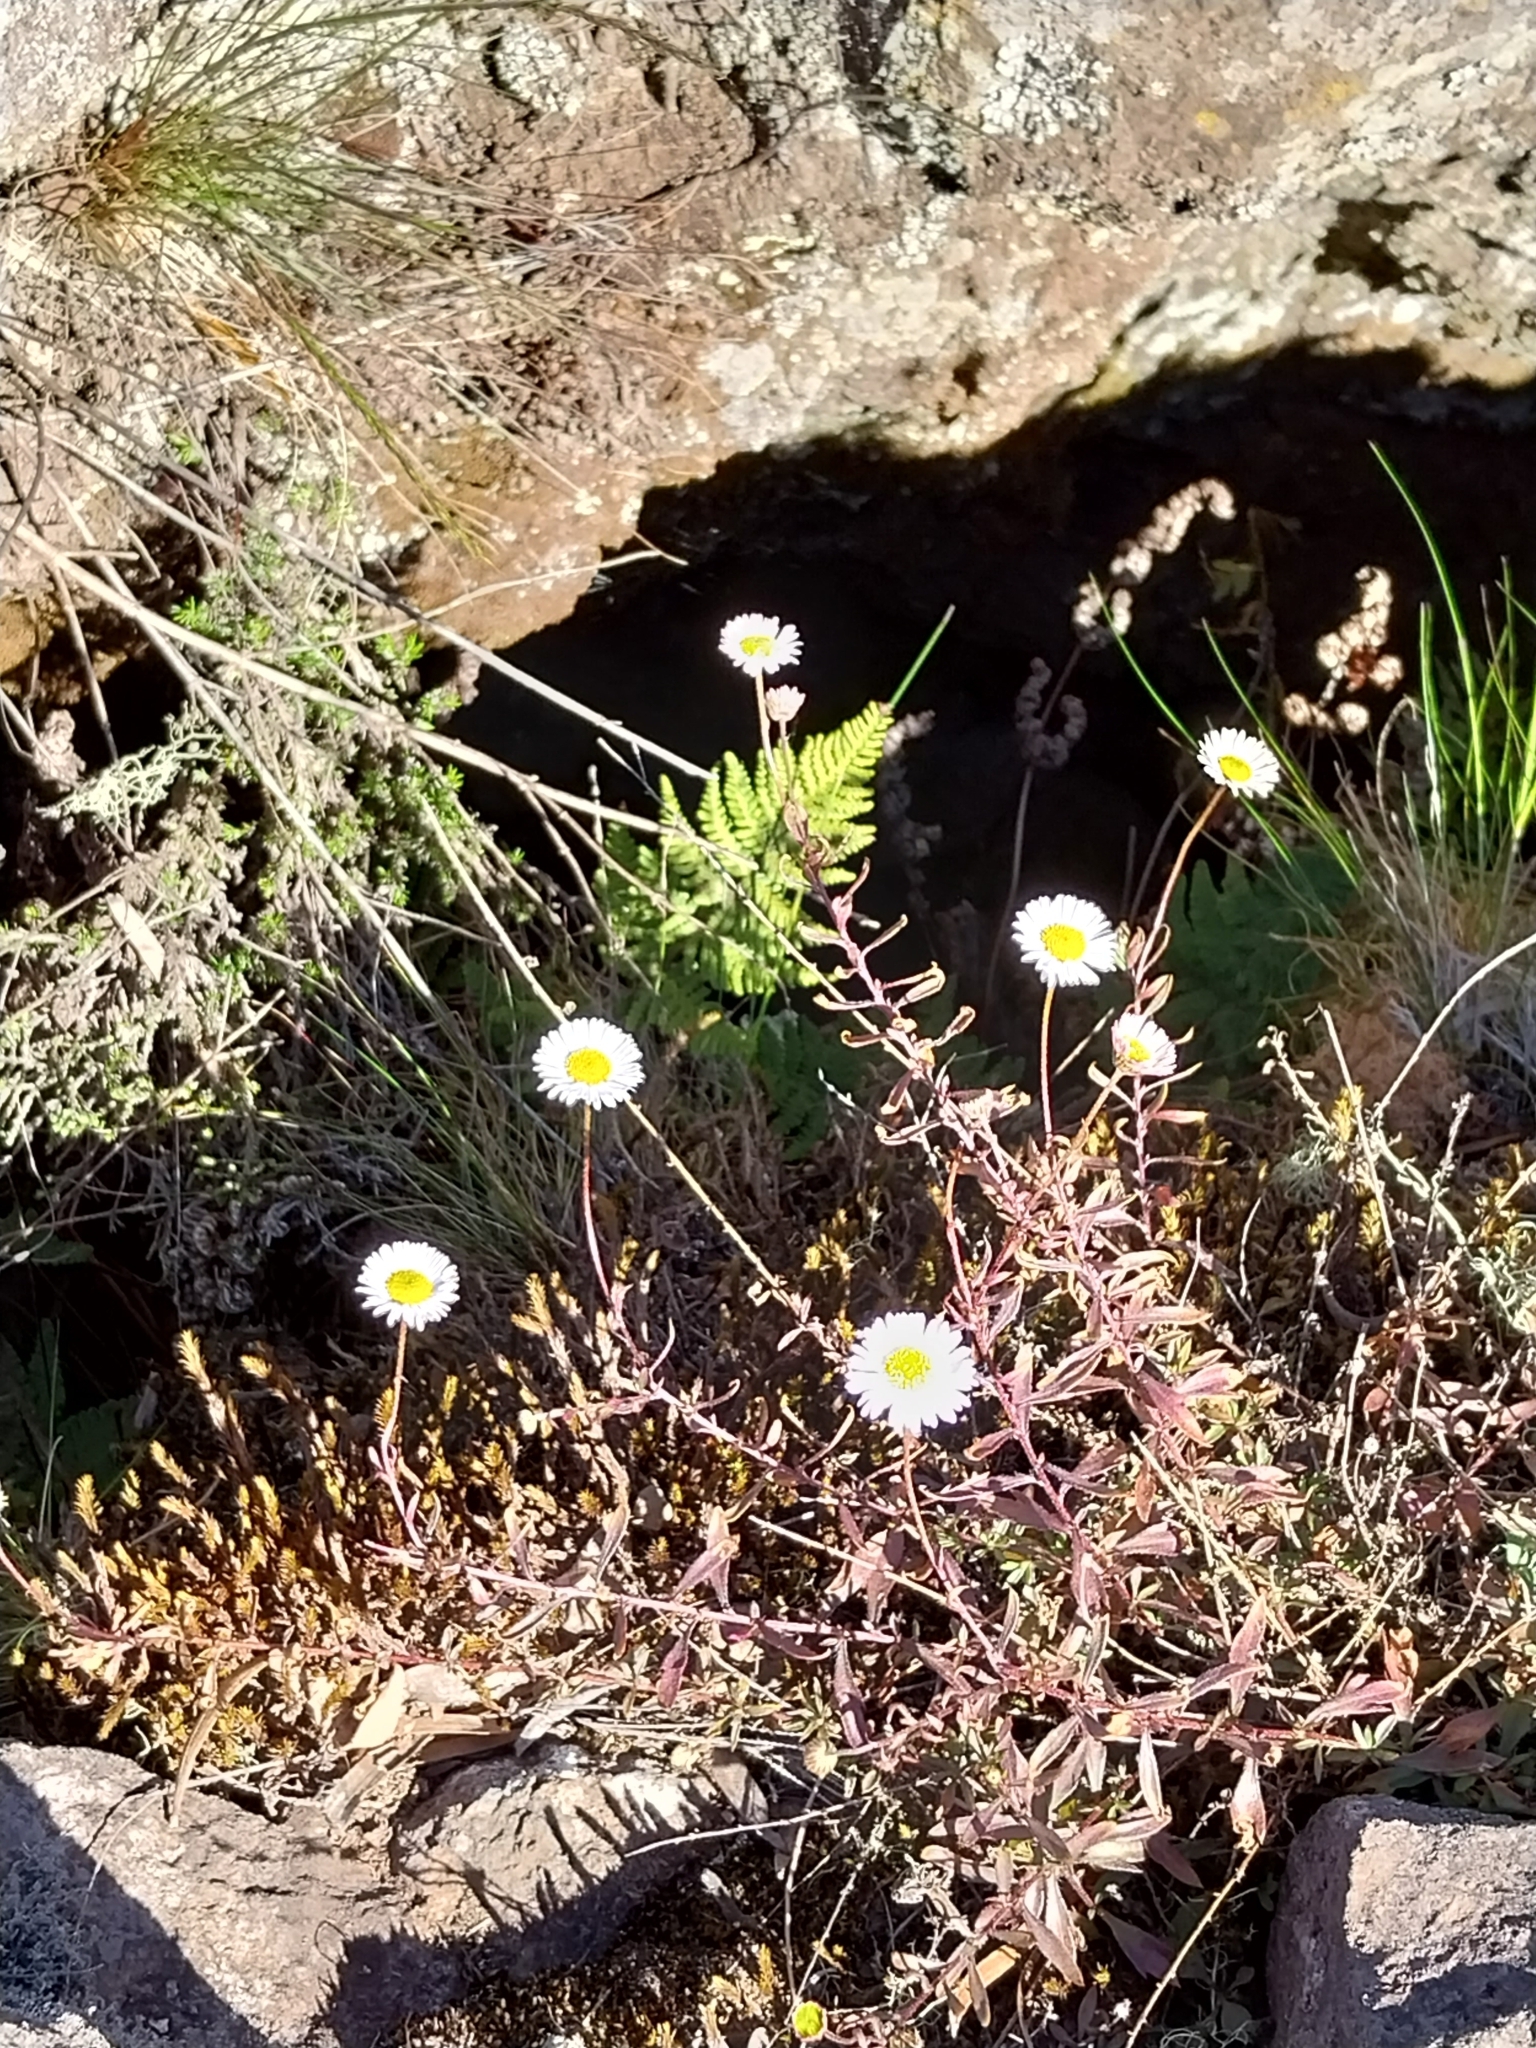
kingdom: Plantae
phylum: Tracheophyta
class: Magnoliopsida
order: Asterales
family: Asteraceae
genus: Erigeron
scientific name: Erigeron karvinskianus
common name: Mexican fleabane
